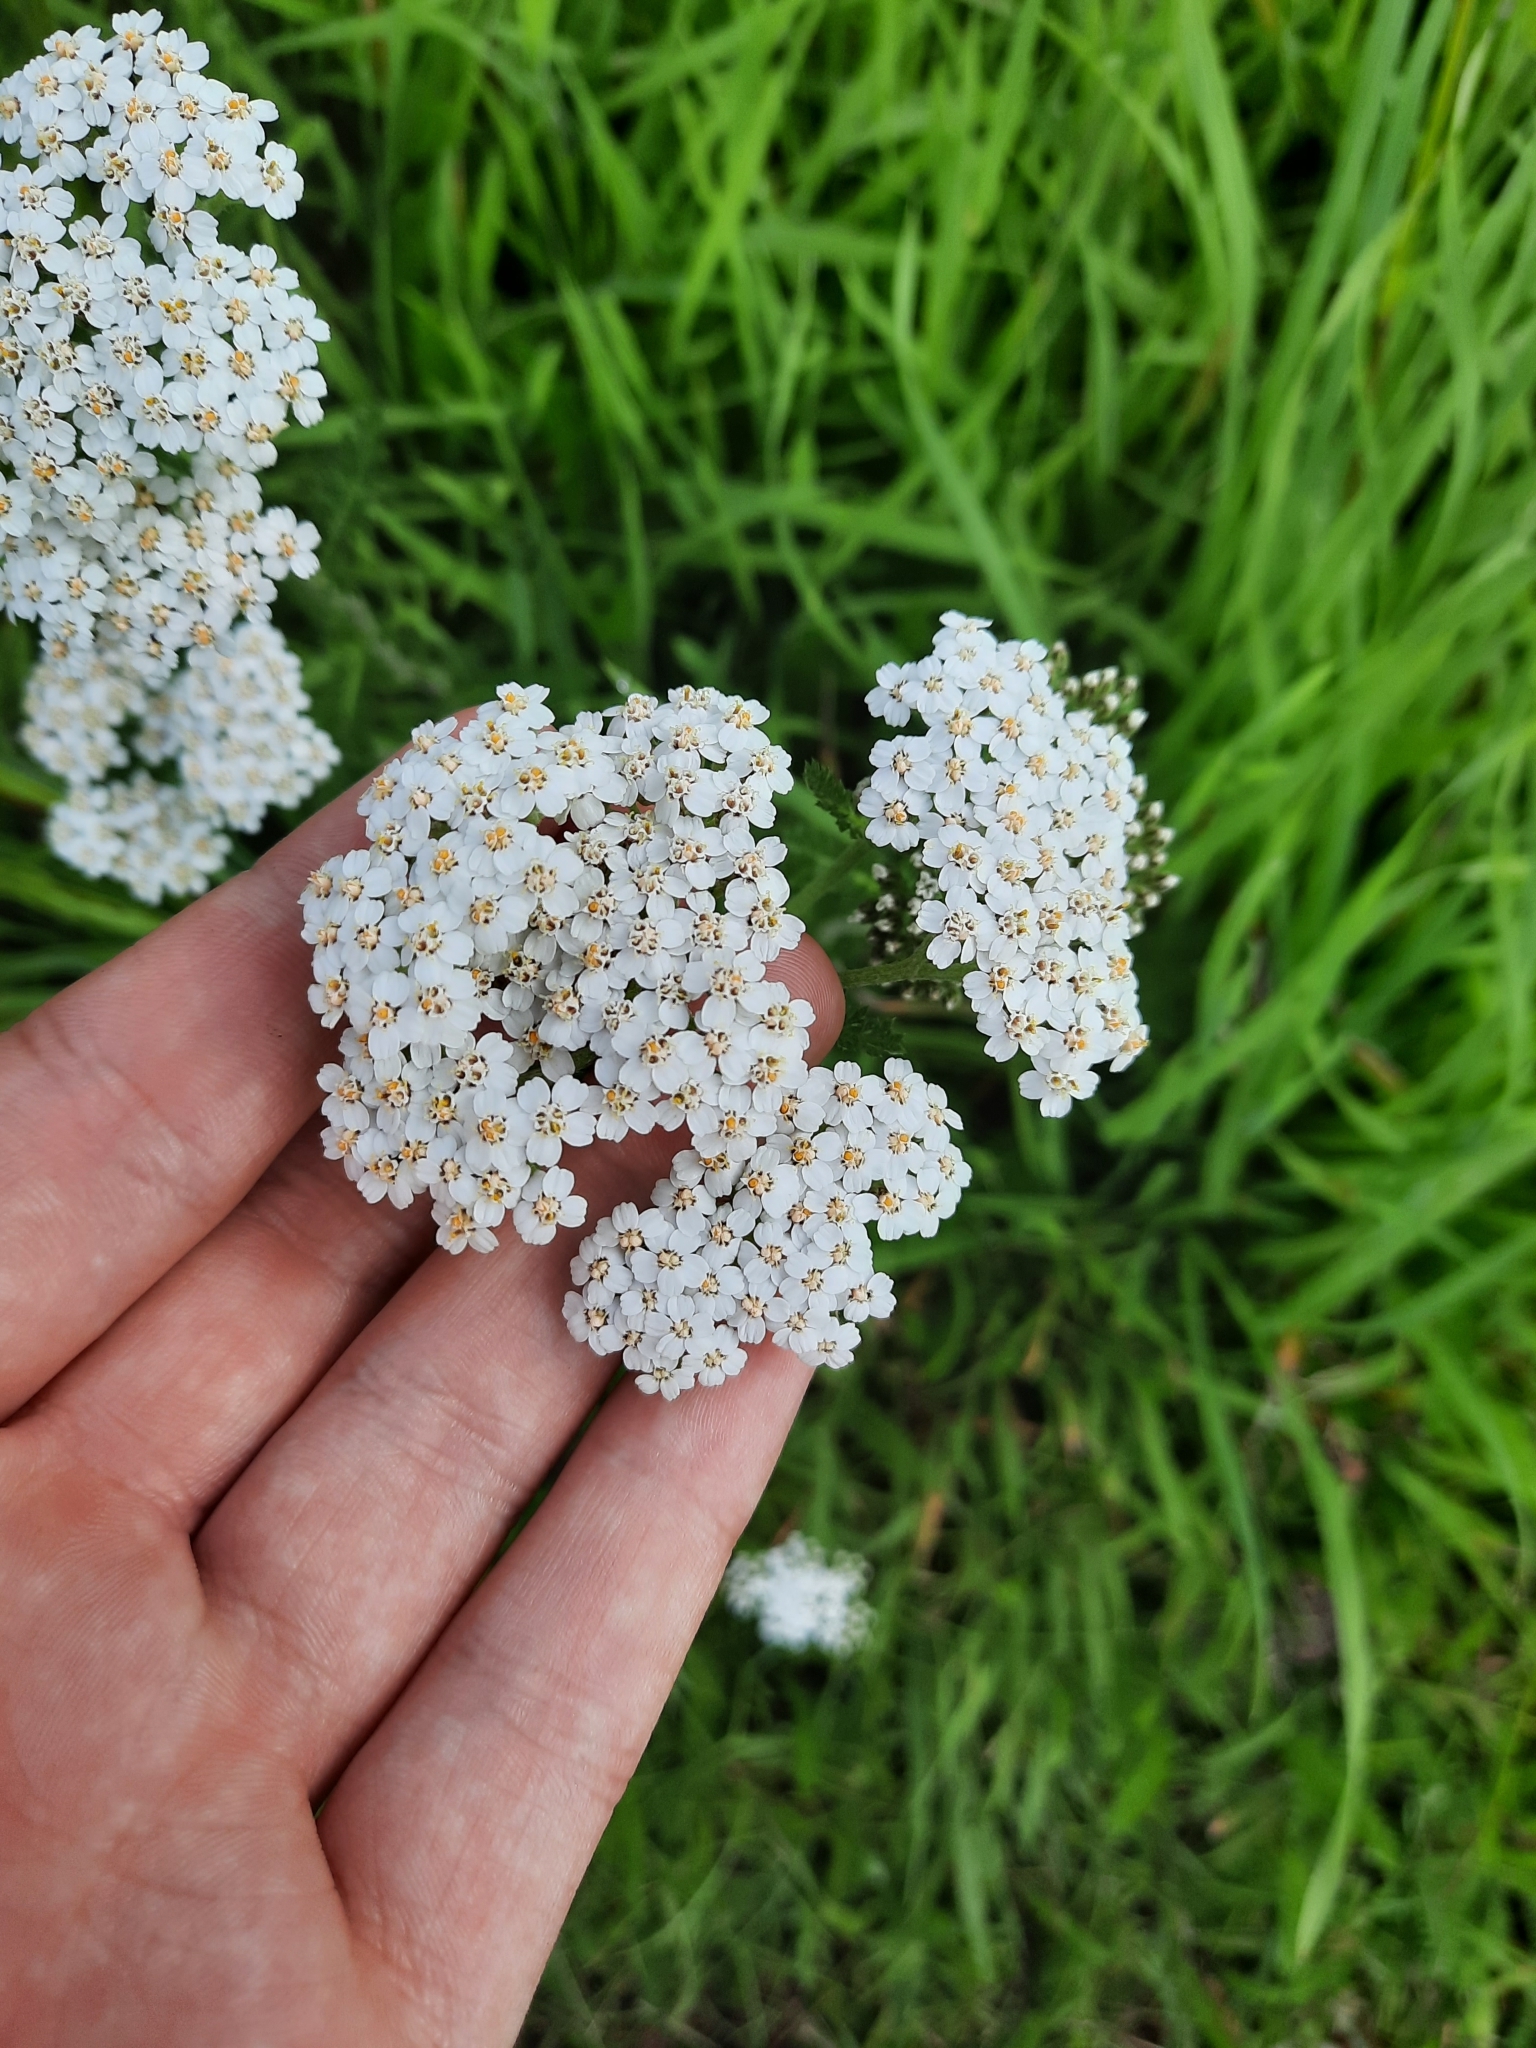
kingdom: Plantae
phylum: Tracheophyta
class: Magnoliopsida
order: Asterales
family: Asteraceae
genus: Achillea
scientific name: Achillea millefolium
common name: Yarrow
